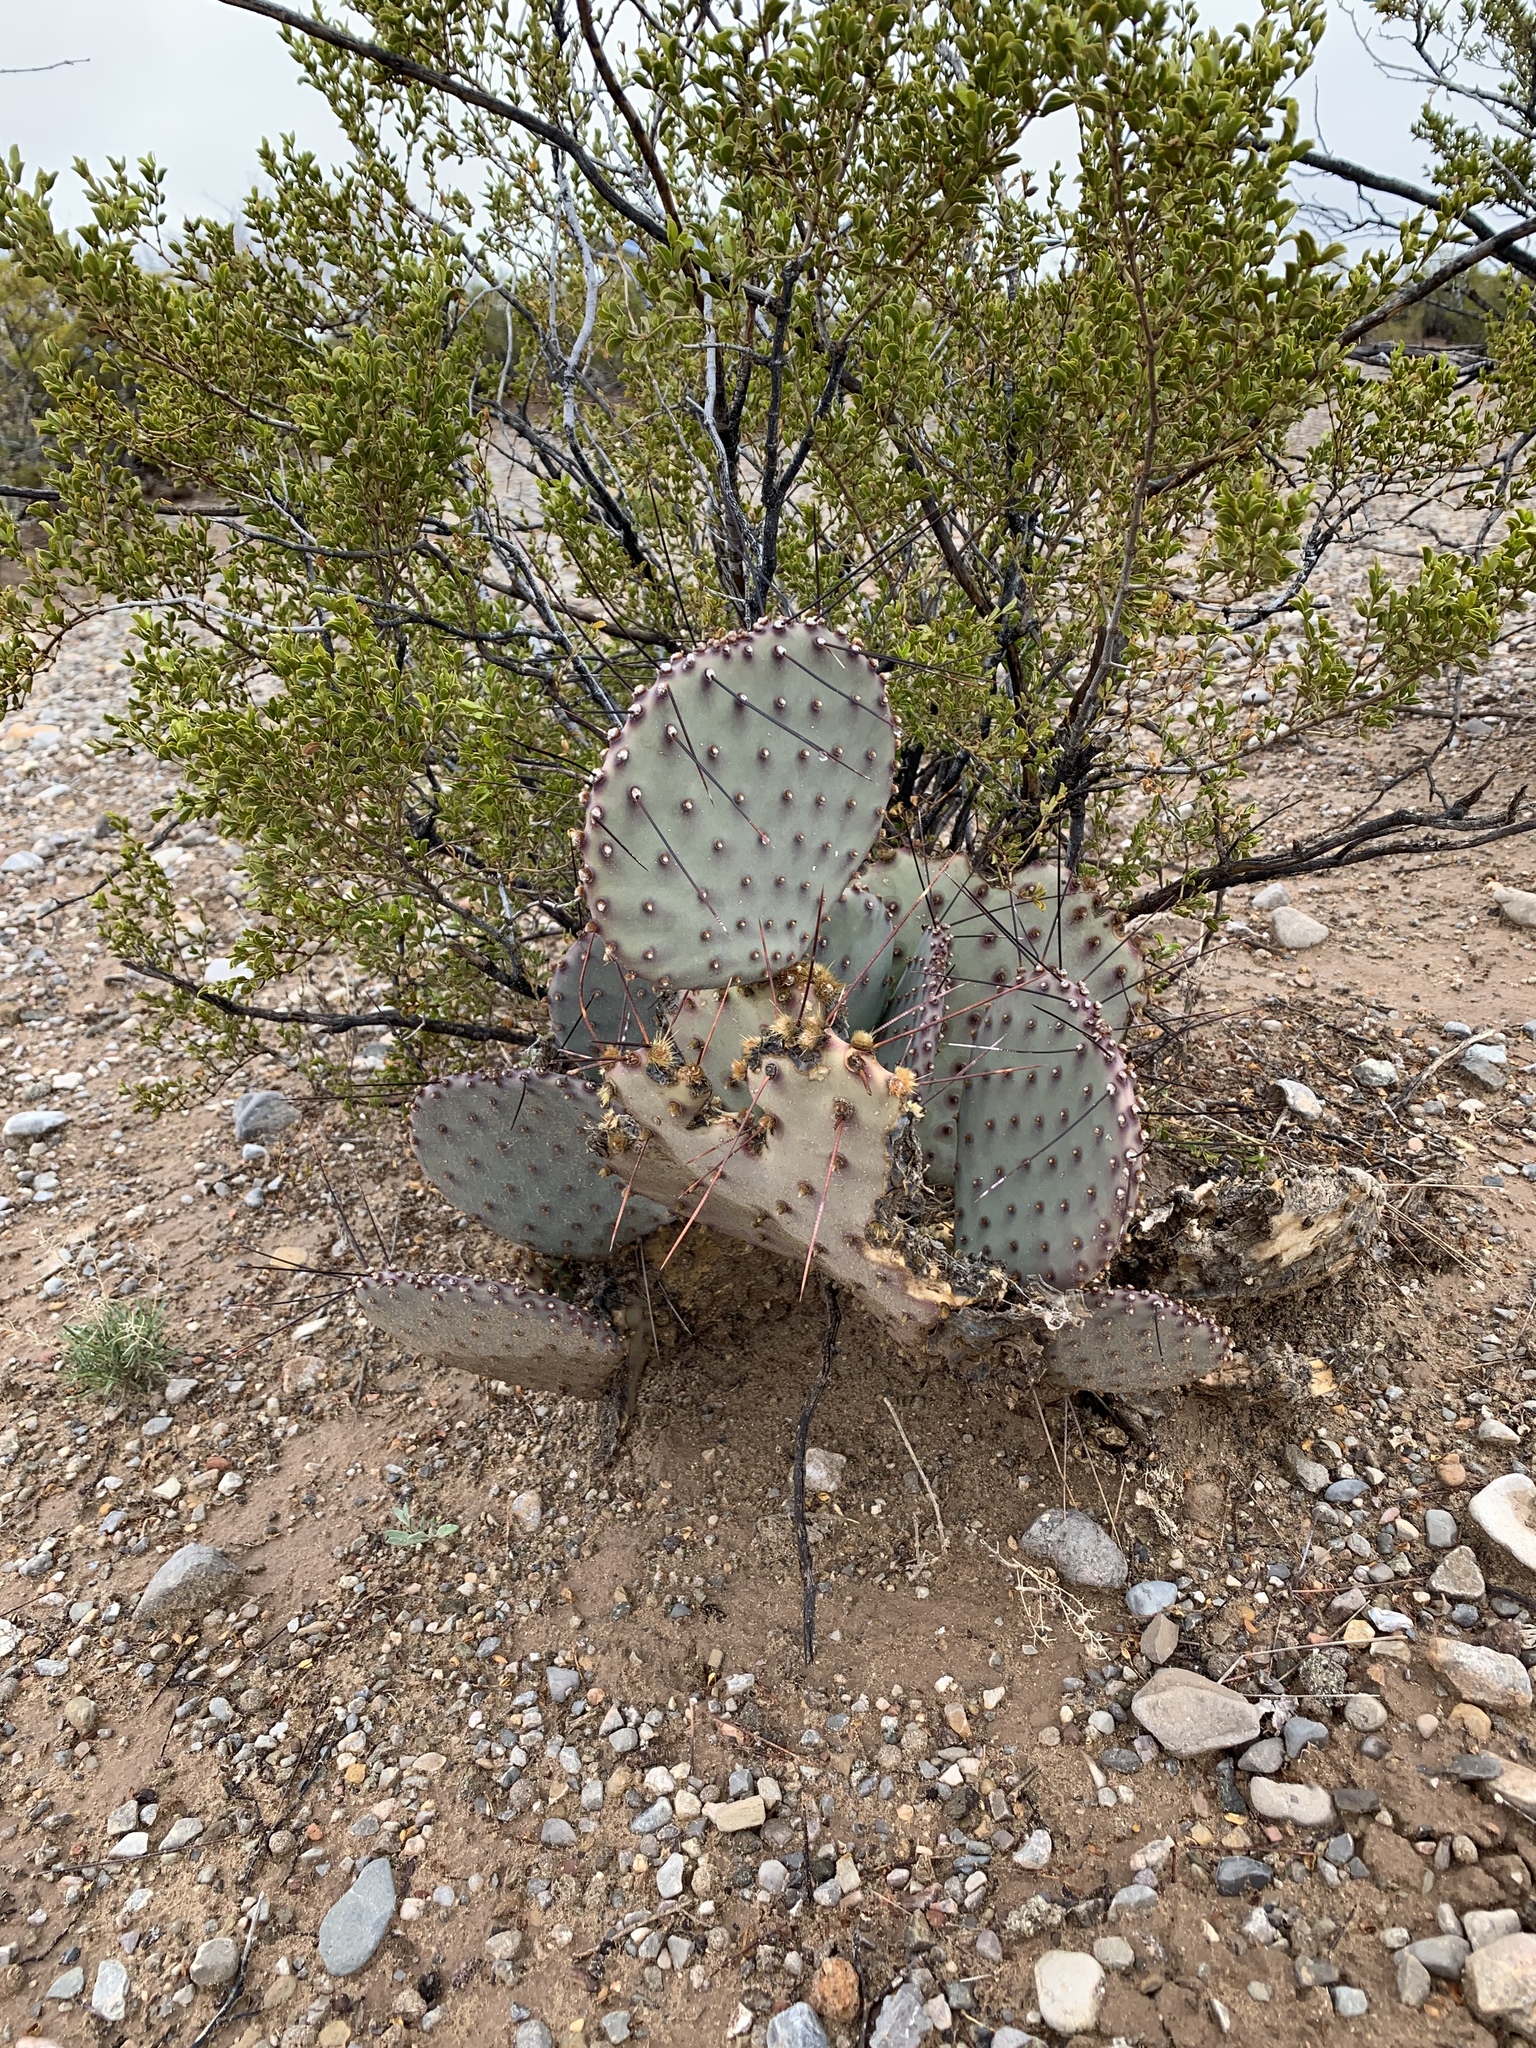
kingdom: Plantae
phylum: Tracheophyta
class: Magnoliopsida
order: Caryophyllales
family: Cactaceae
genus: Opuntia
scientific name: Opuntia macrocentra
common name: Purple prickly-pear
